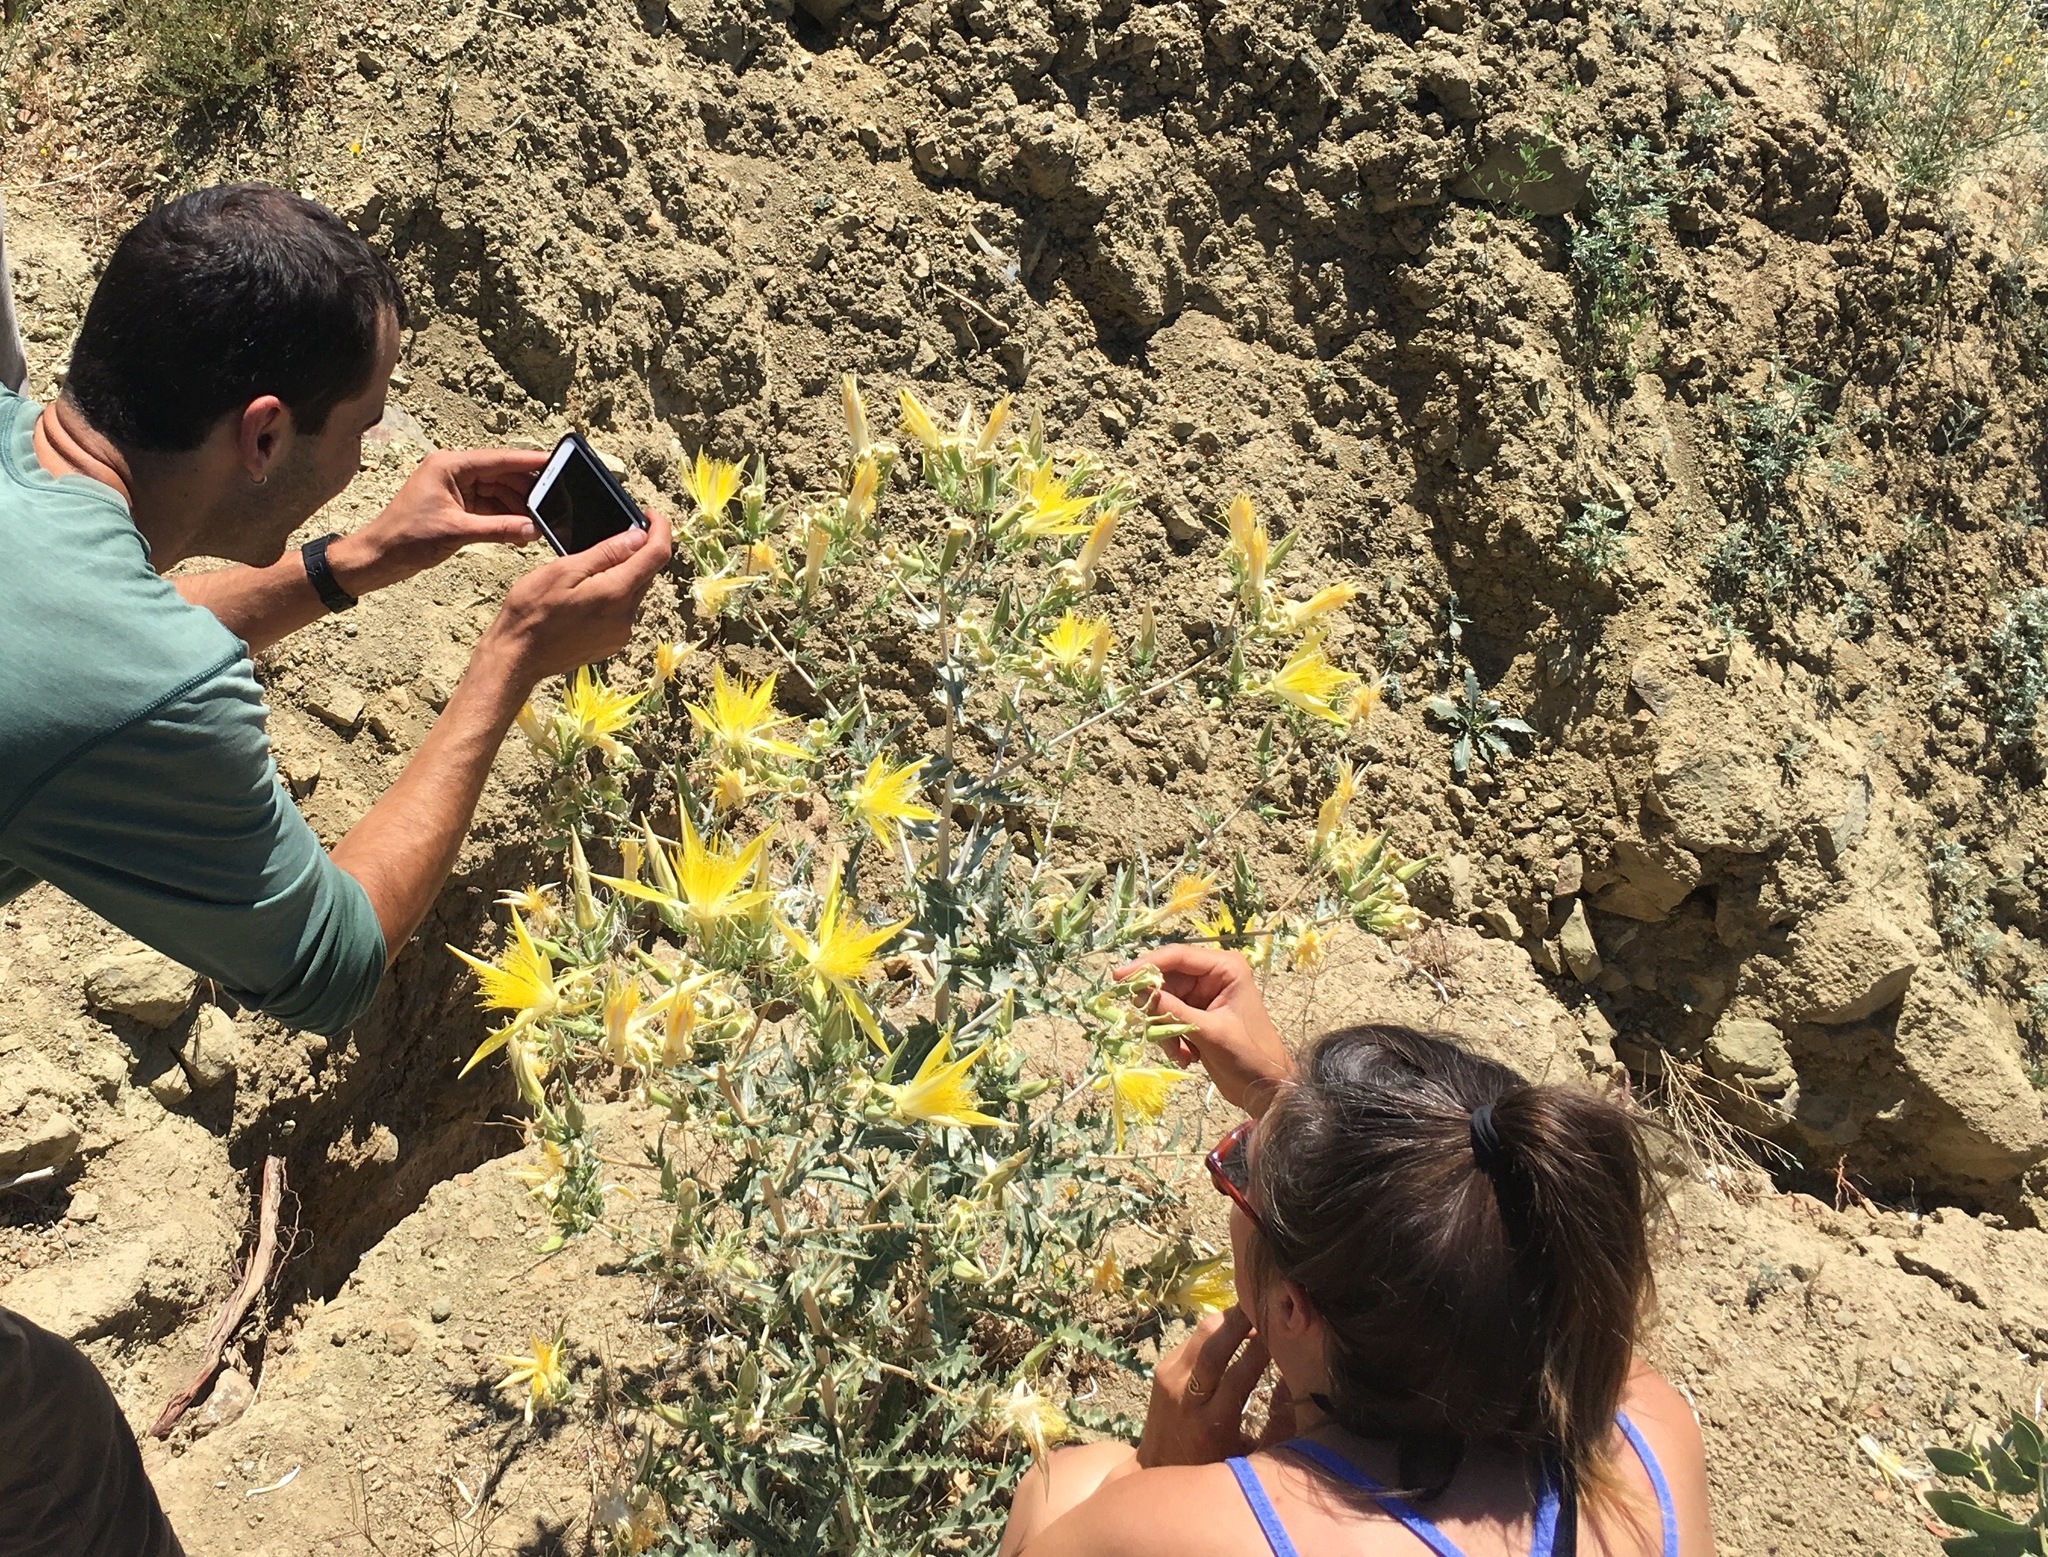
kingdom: Plantae
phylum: Tracheophyta
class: Magnoliopsida
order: Cornales
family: Loasaceae
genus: Mentzelia
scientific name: Mentzelia laevicaulis
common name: Smooth-stem blazingstar
